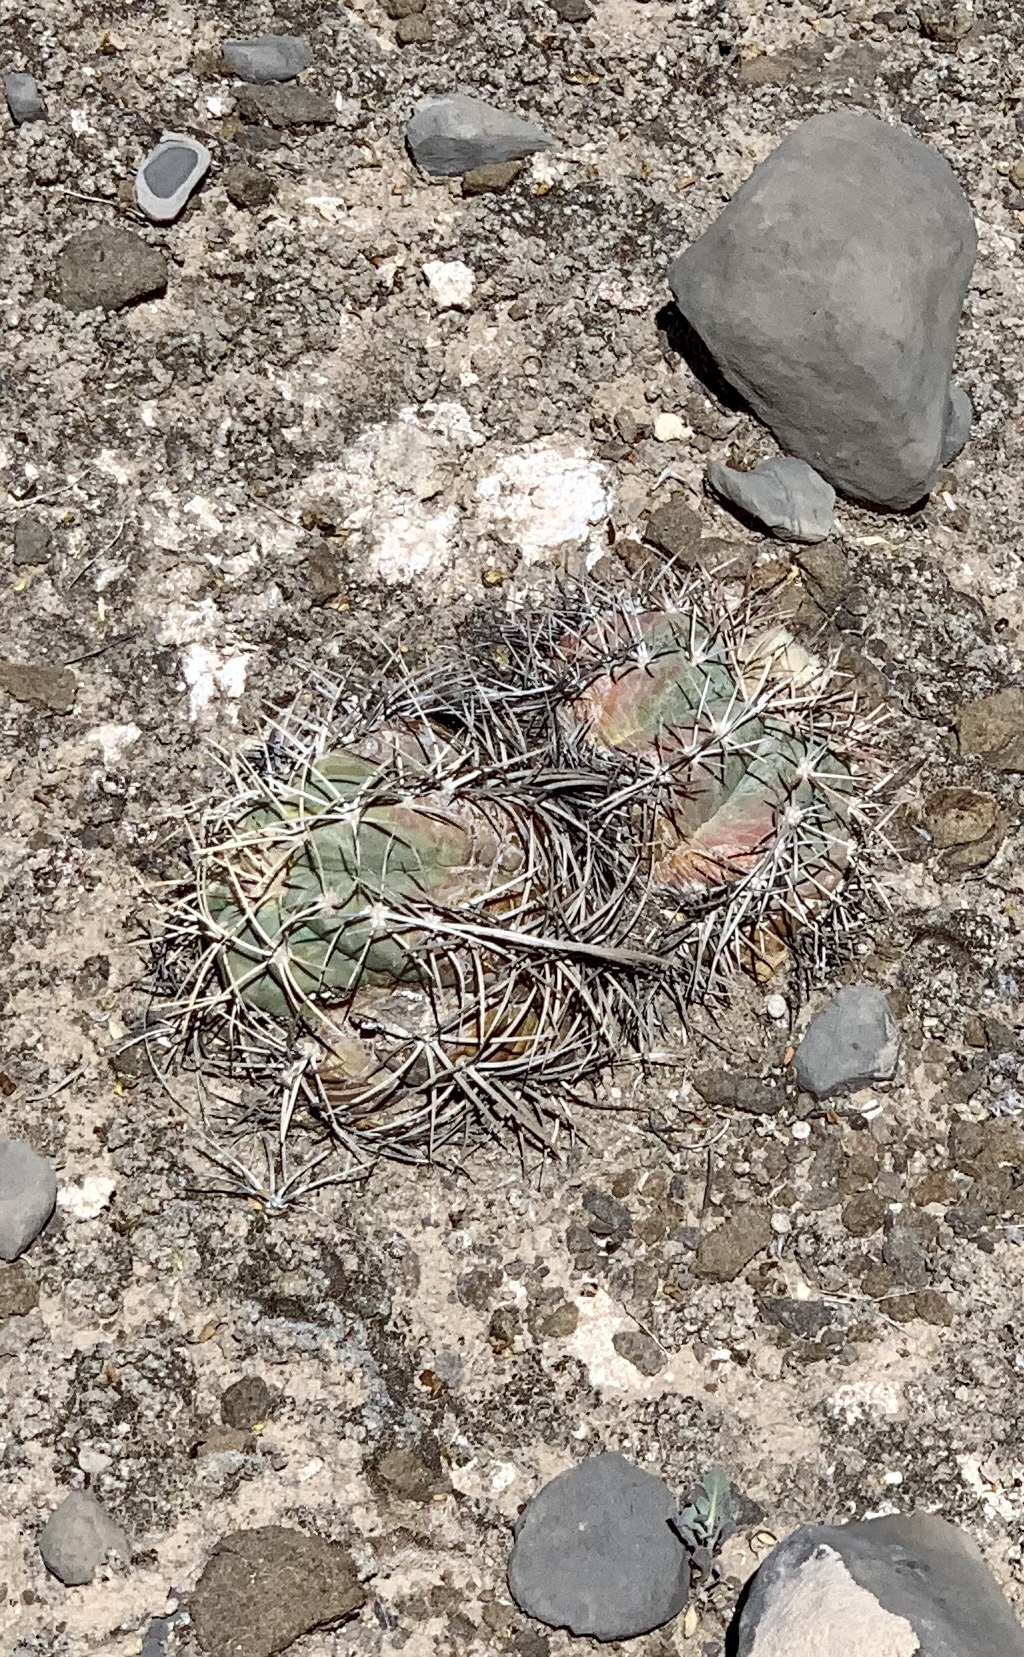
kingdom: Plantae
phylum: Tracheophyta
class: Magnoliopsida
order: Caryophyllales
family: Cactaceae
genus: Echinocactus
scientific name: Echinocactus horizonthalonius
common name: Devilshead
